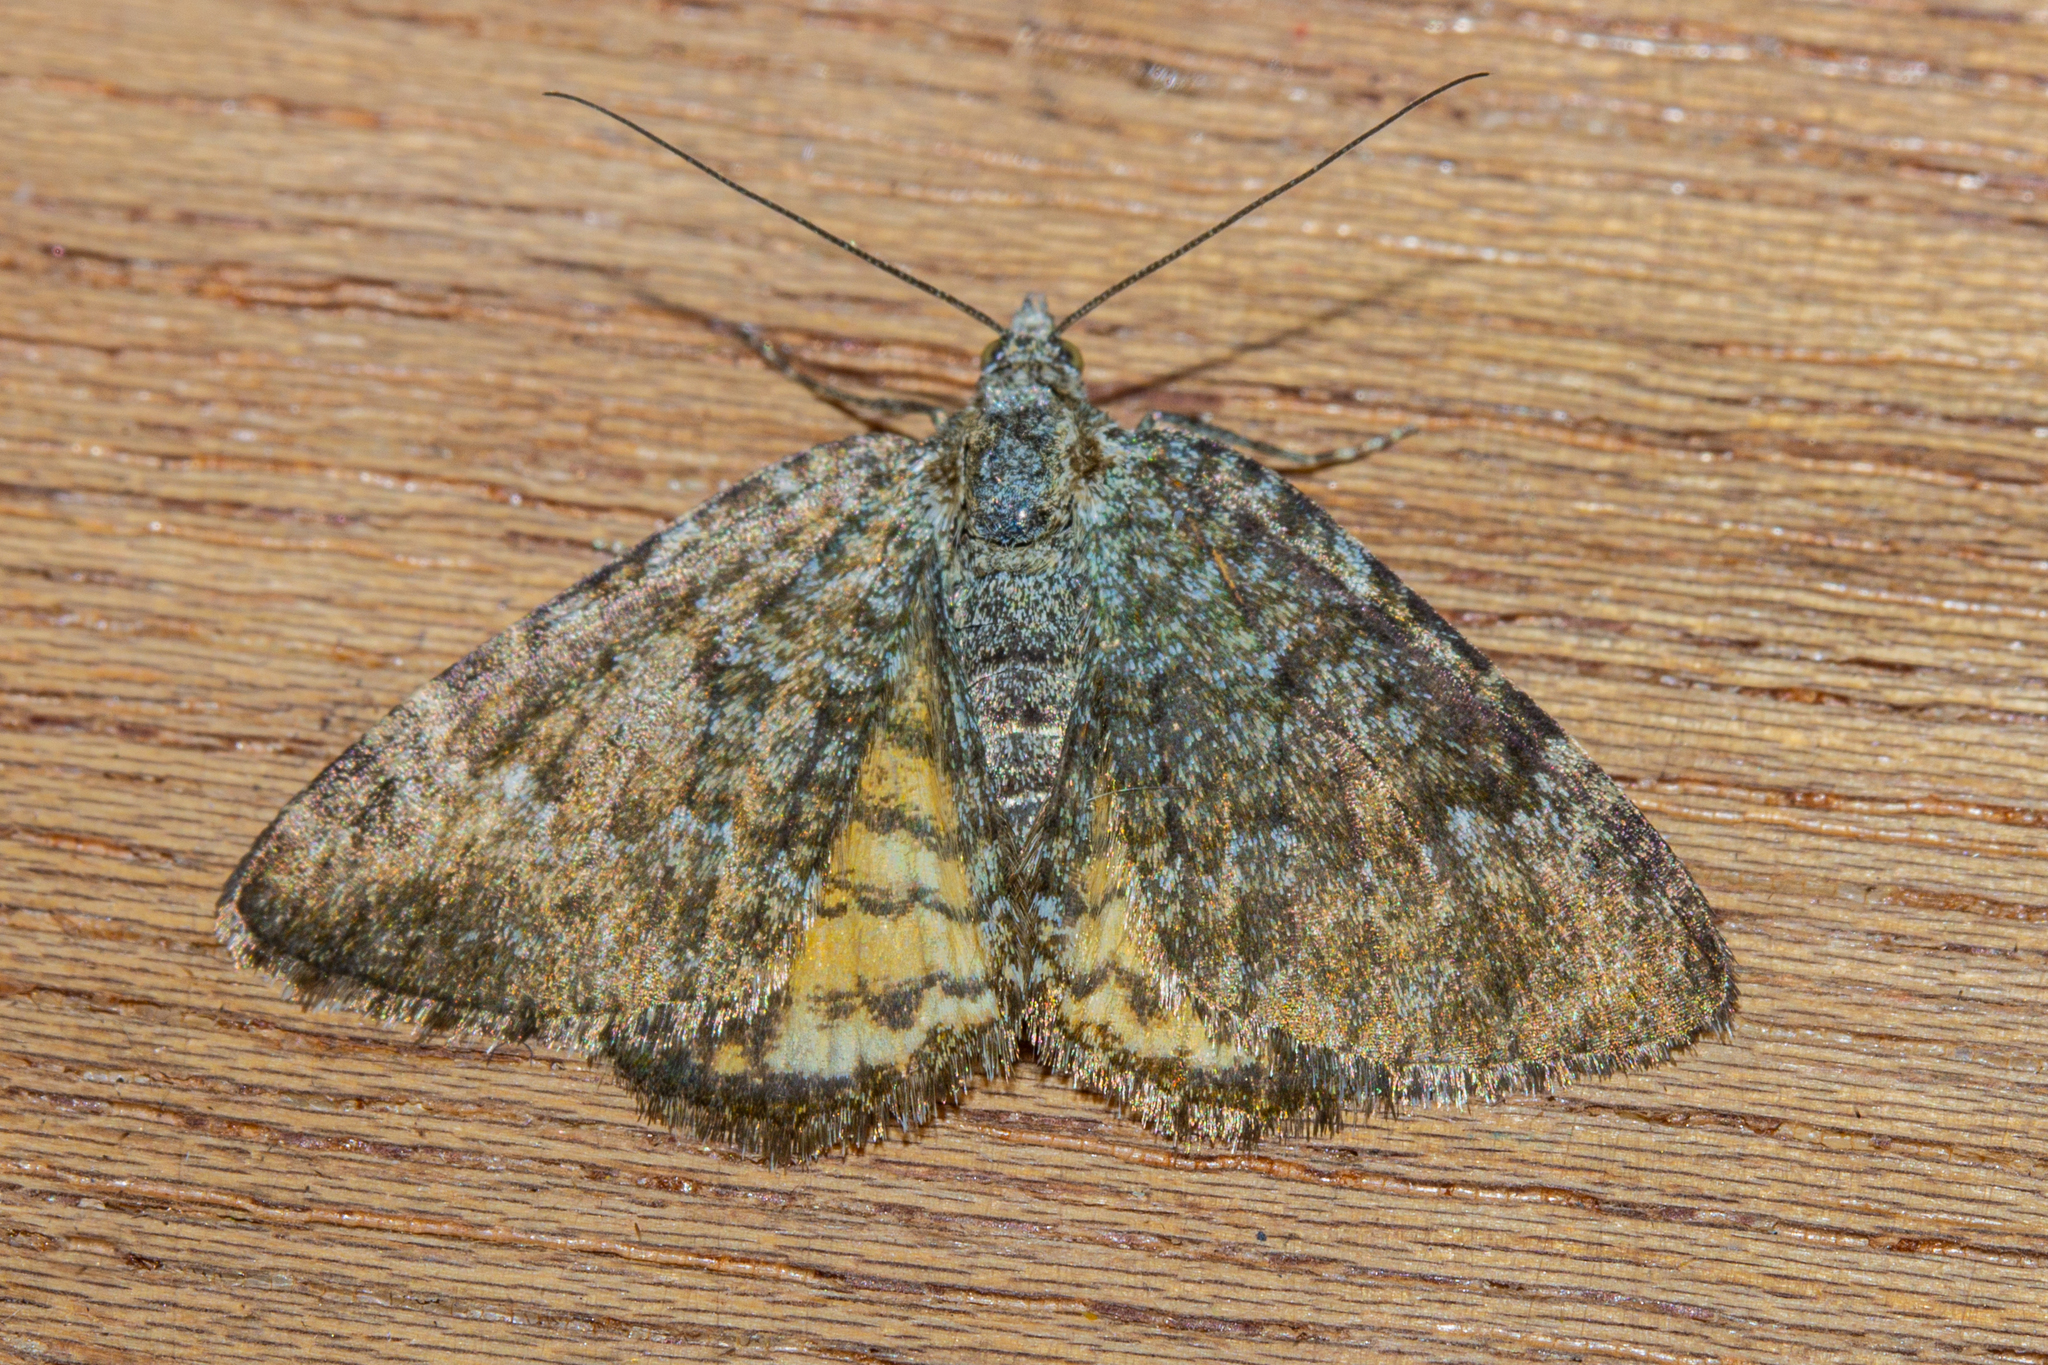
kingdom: Animalia
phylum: Arthropoda
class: Insecta
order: Lepidoptera
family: Geometridae
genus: Dasyuris
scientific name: Dasyuris anceps
